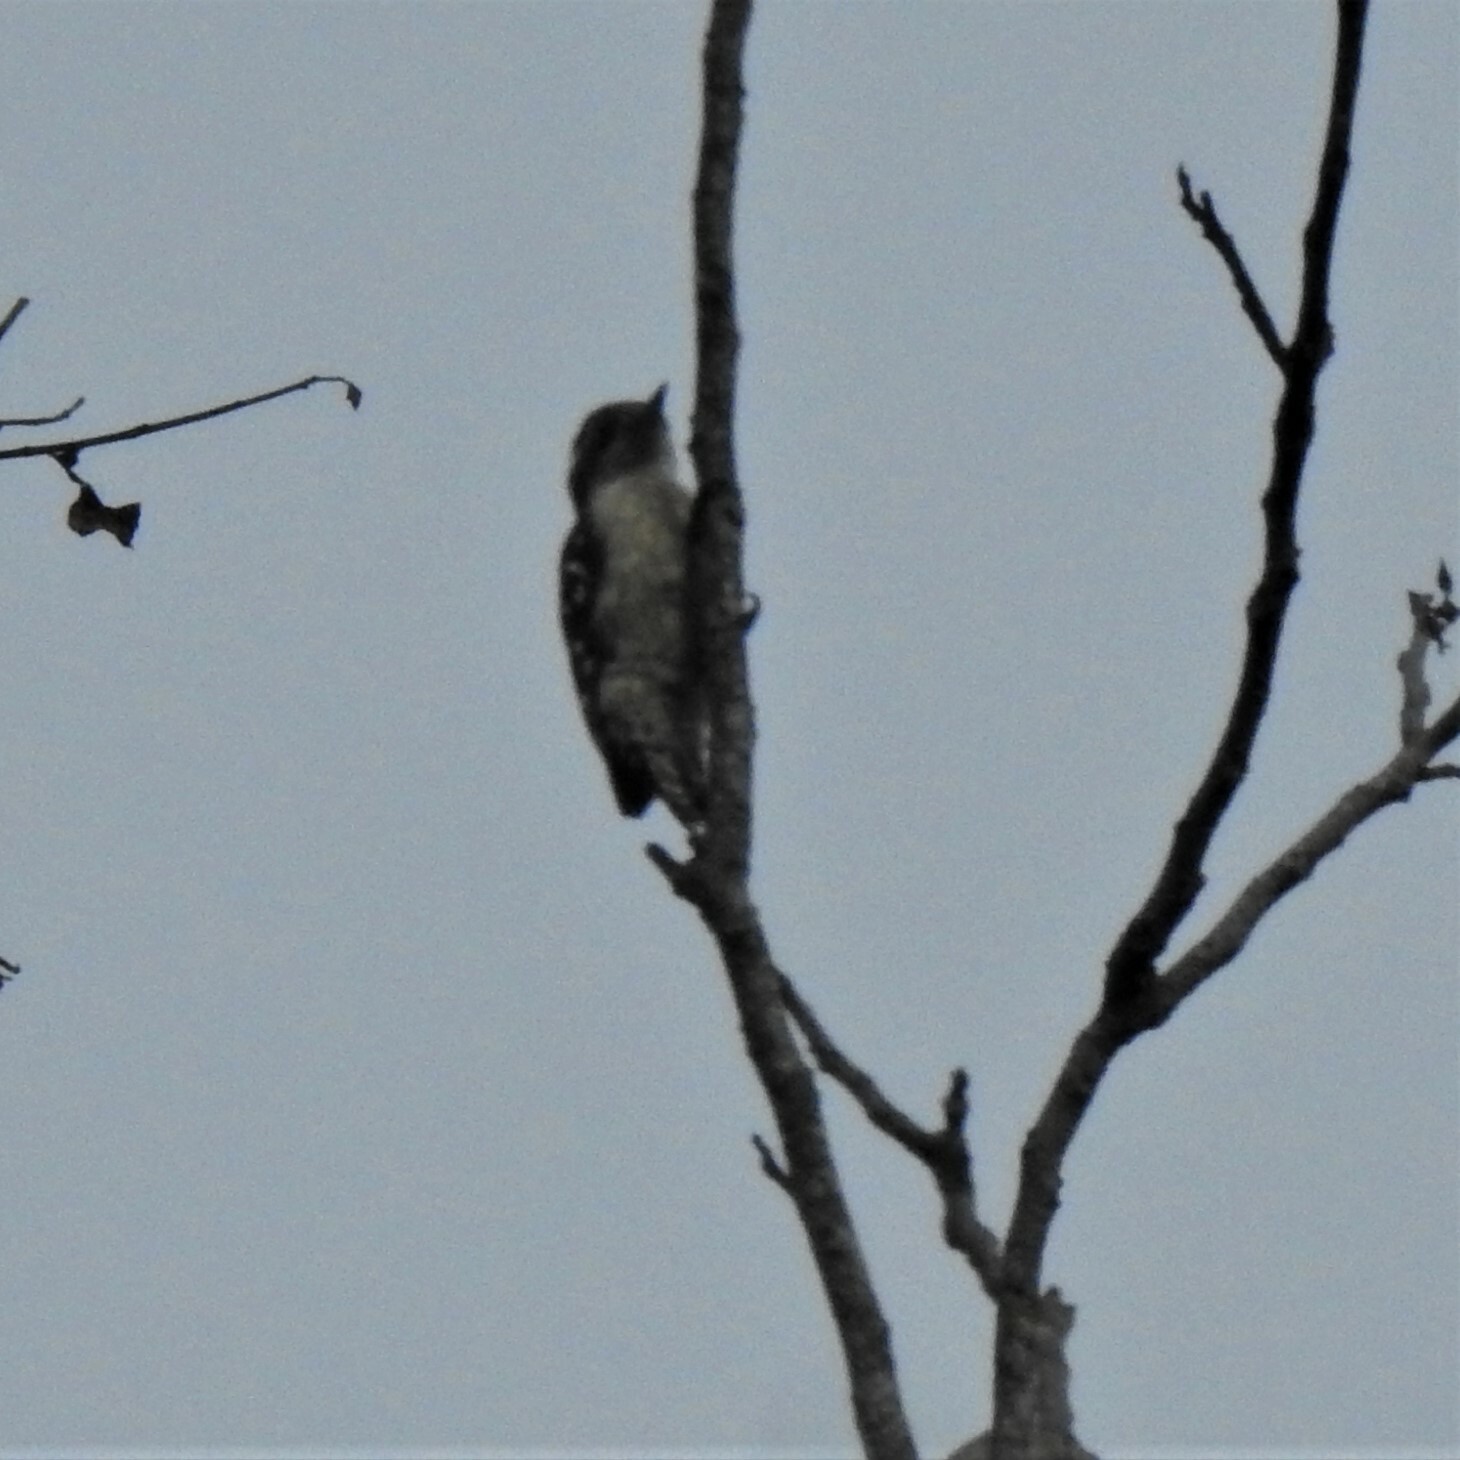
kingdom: Animalia
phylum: Chordata
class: Aves
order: Piciformes
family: Picidae
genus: Yungipicus
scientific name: Yungipicus nanus
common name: Brown-capped pygmy woodpecker
